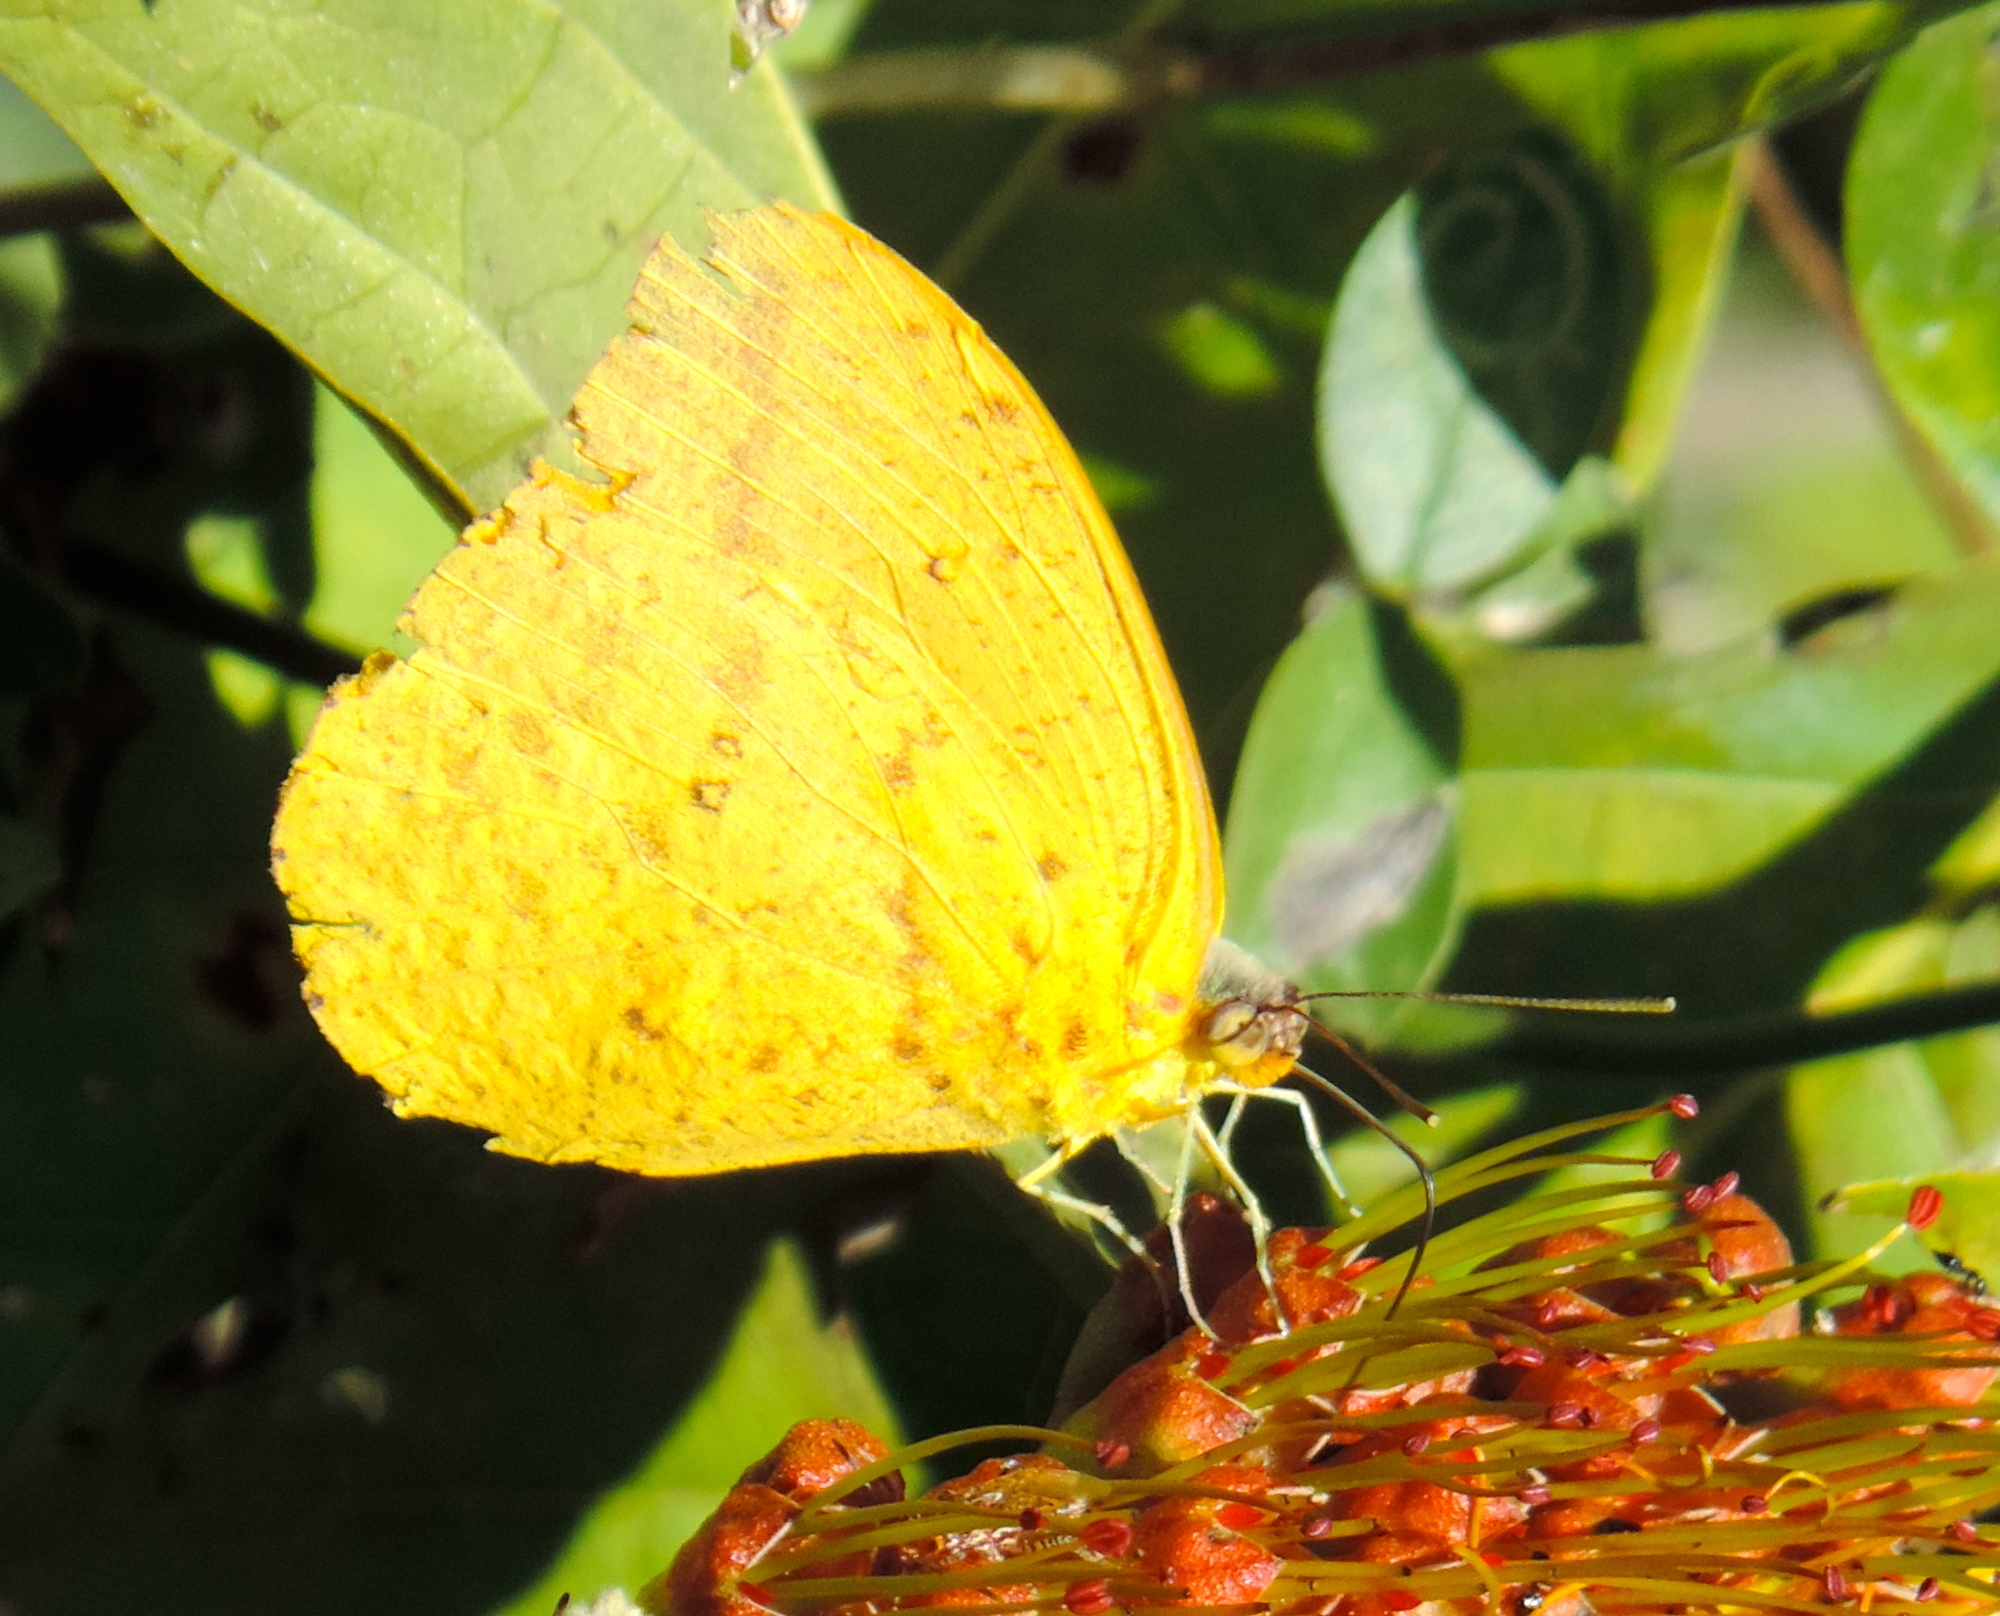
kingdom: Animalia
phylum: Arthropoda
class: Insecta
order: Lepidoptera
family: Pieridae
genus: Phoebis
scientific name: Phoebis agarithe
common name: Large orange sulphur
